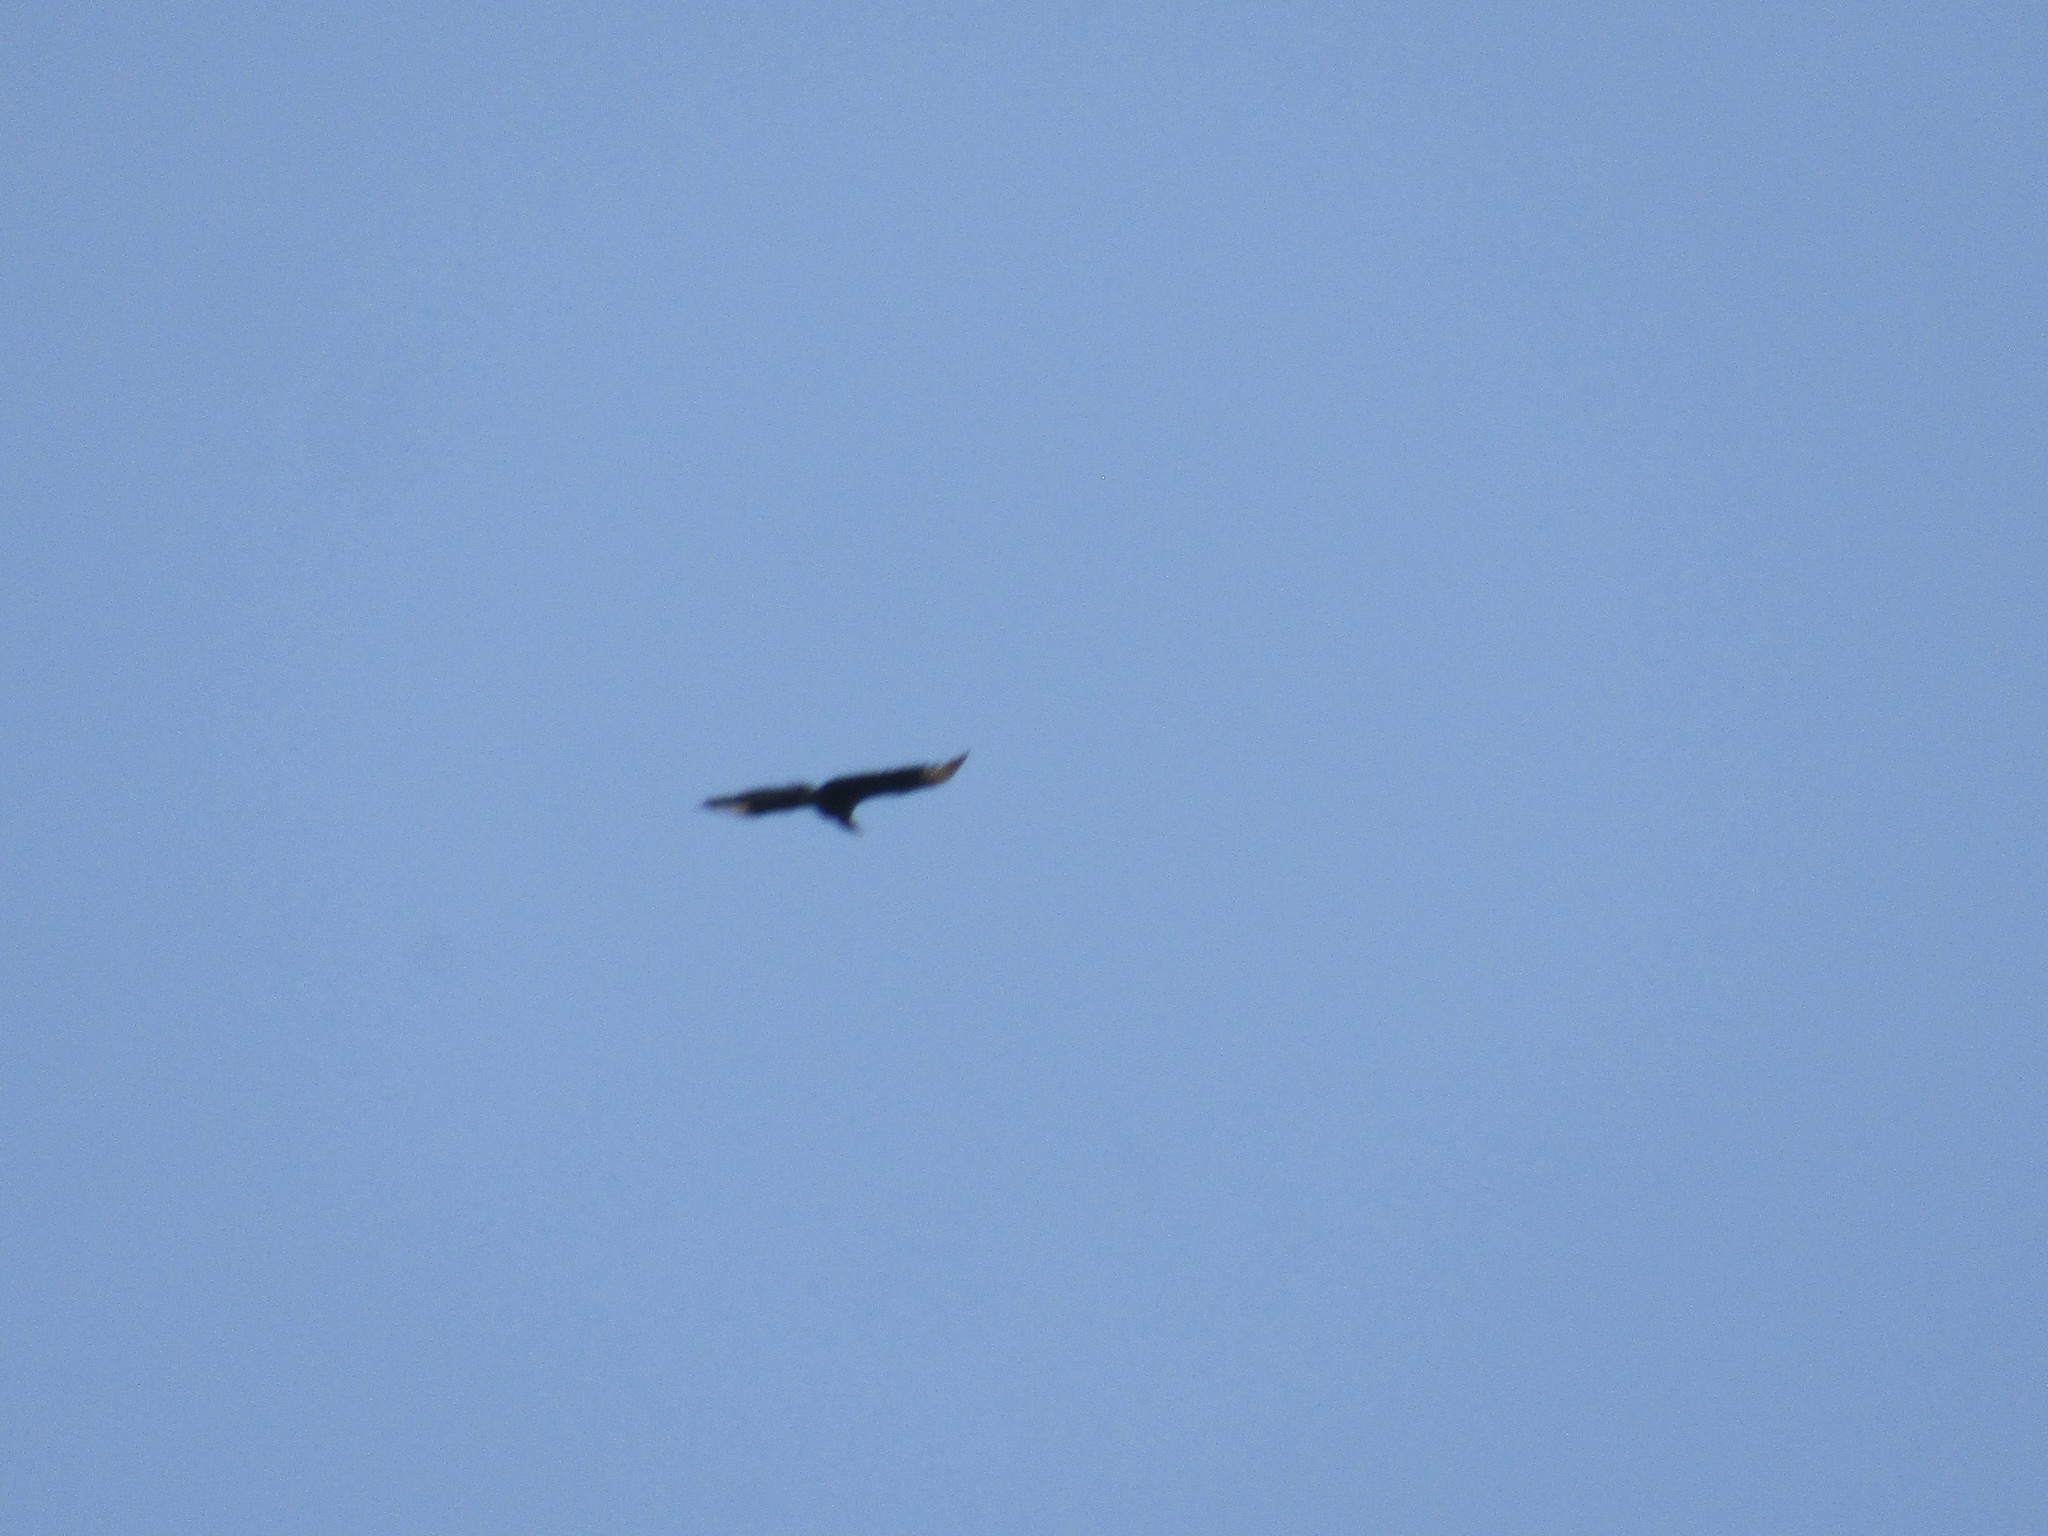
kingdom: Animalia
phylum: Chordata
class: Aves
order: Accipitriformes
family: Cathartidae
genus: Coragyps
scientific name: Coragyps atratus
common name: Black vulture
